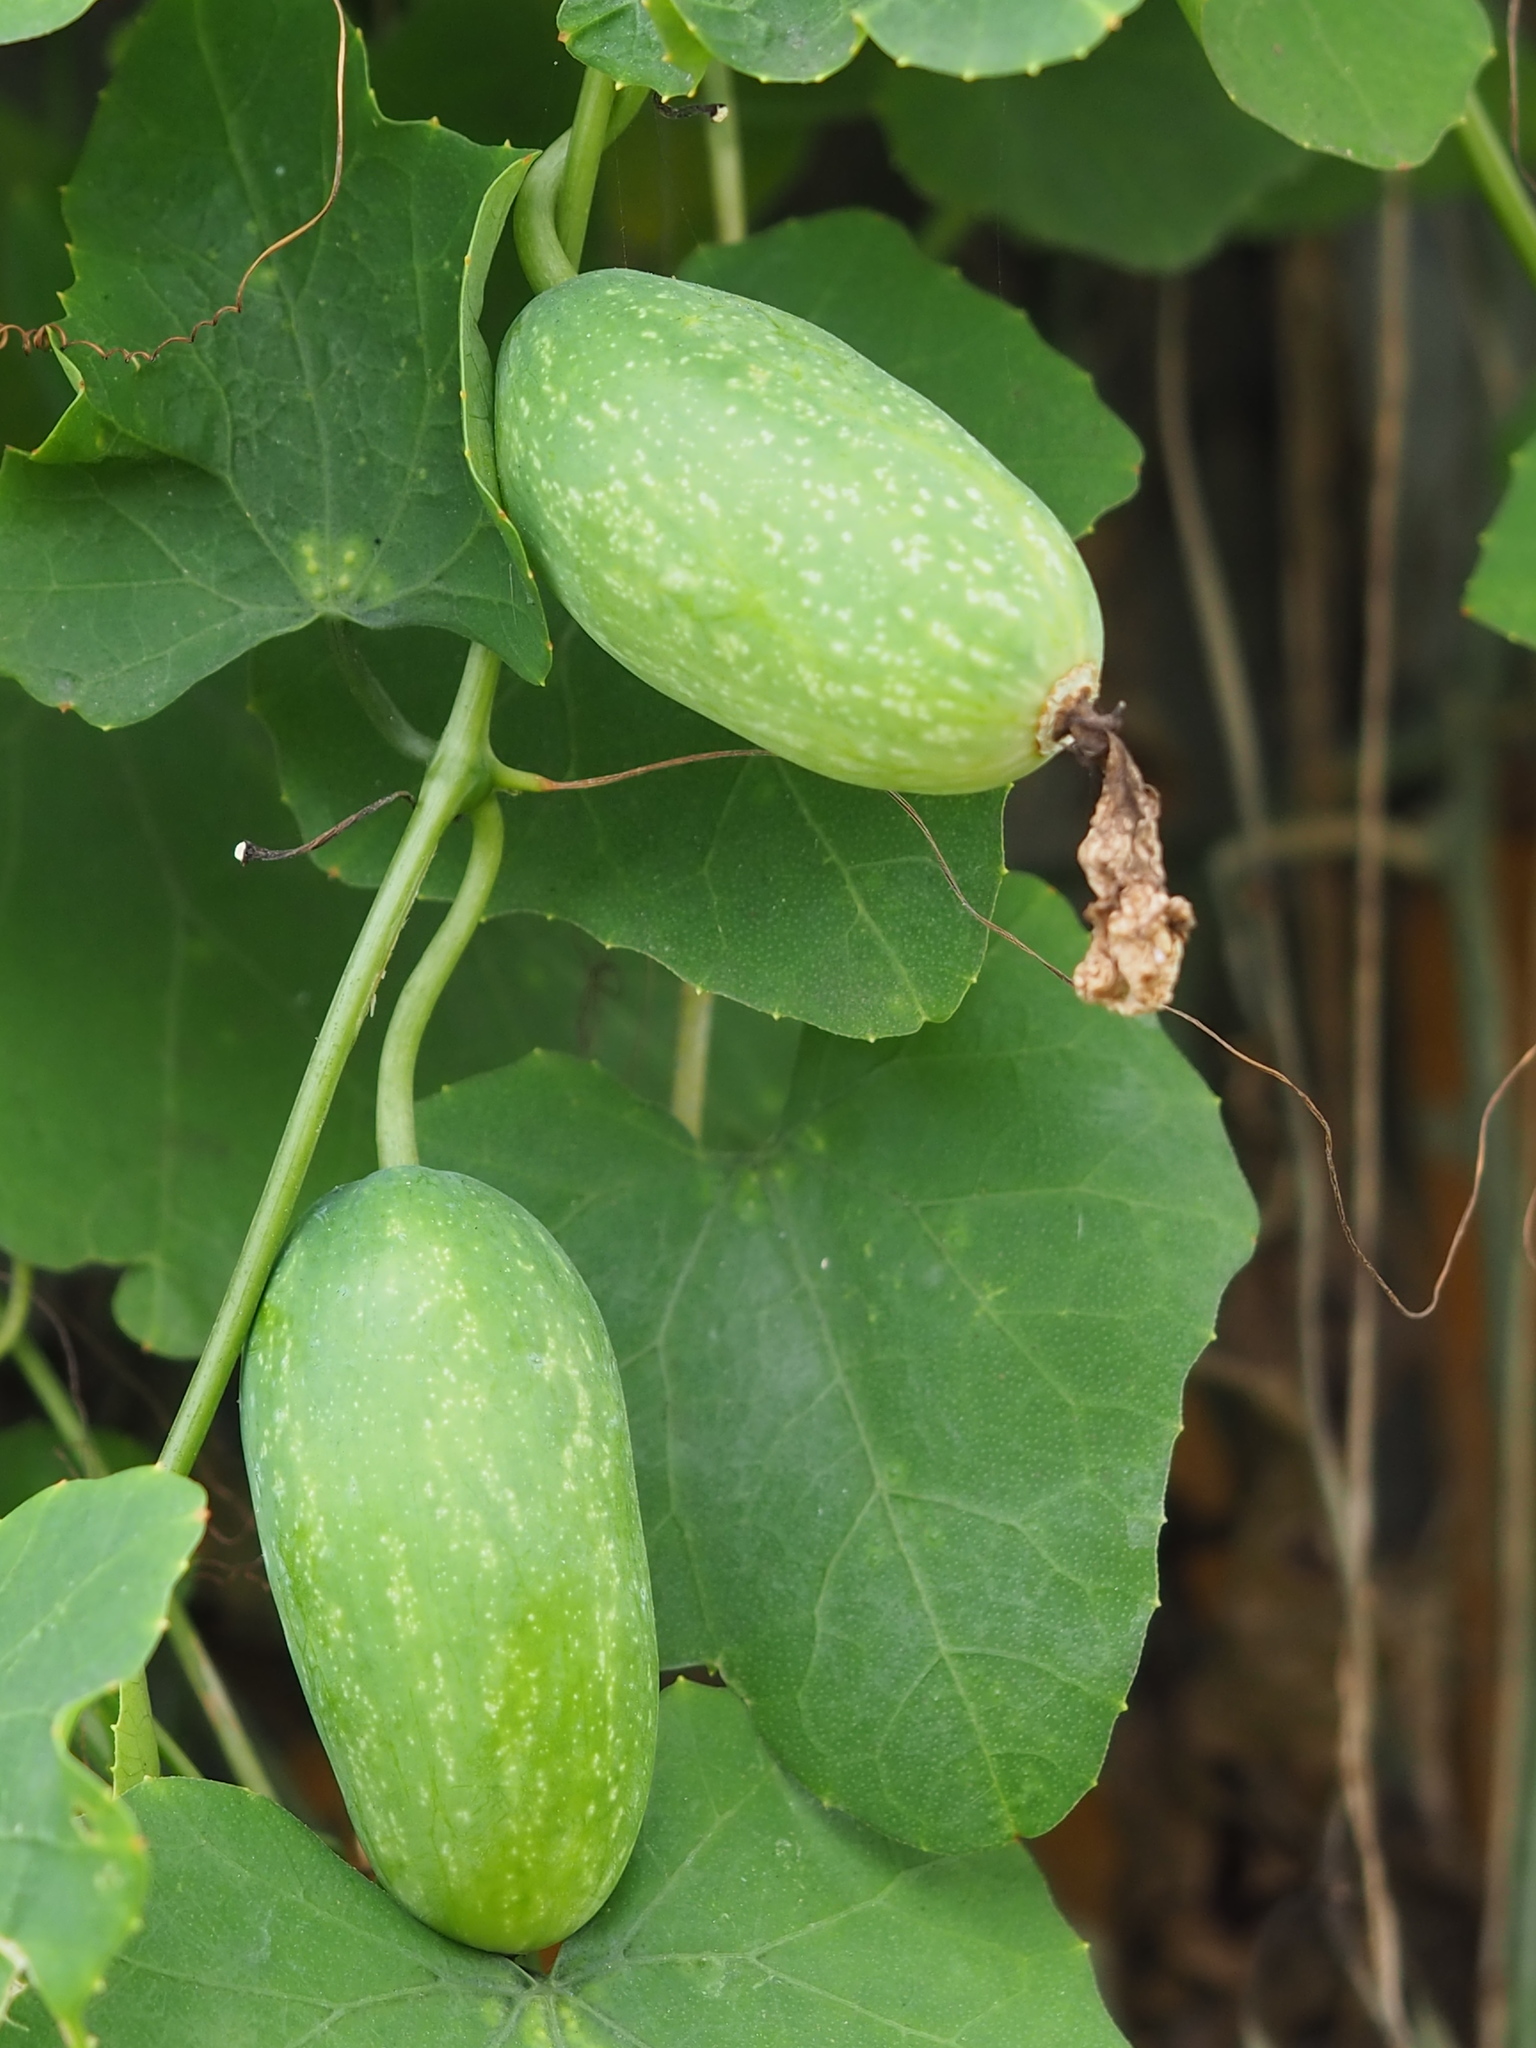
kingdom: Plantae
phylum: Tracheophyta
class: Magnoliopsida
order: Cucurbitales
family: Cucurbitaceae
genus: Coccinia
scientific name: Coccinia grandis
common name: Ivy gourd
